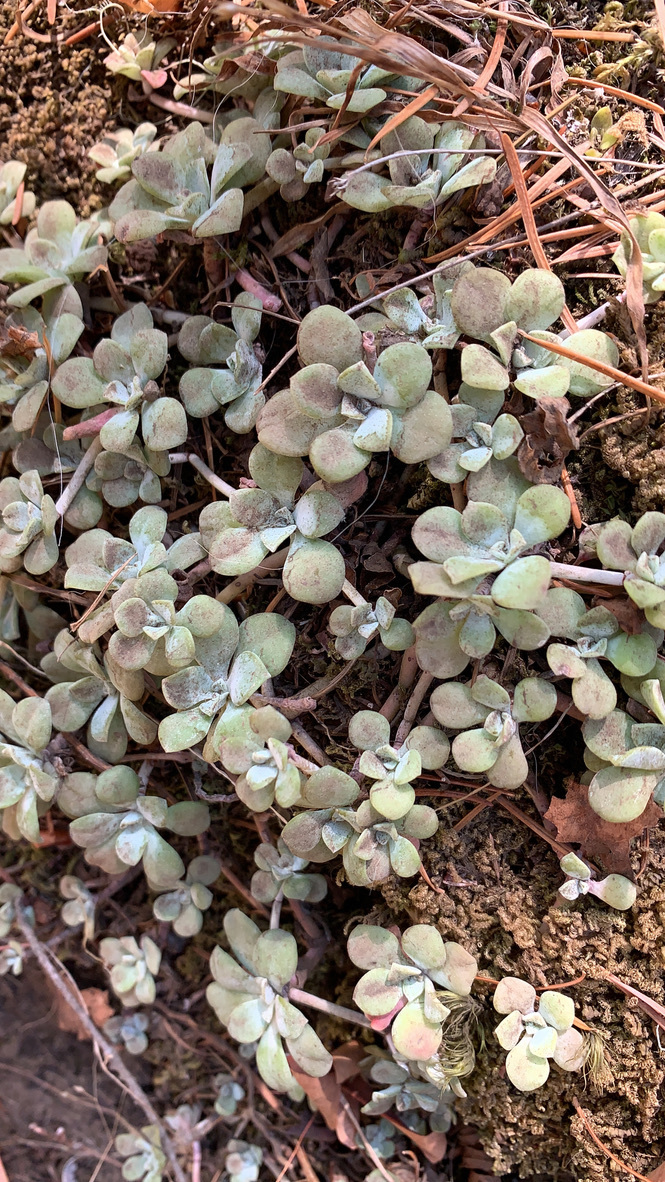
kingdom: Plantae
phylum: Tracheophyta
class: Magnoliopsida
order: Saxifragales
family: Crassulaceae
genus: Sedum
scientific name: Sedum spathulifolium
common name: Colorado stonecrop
